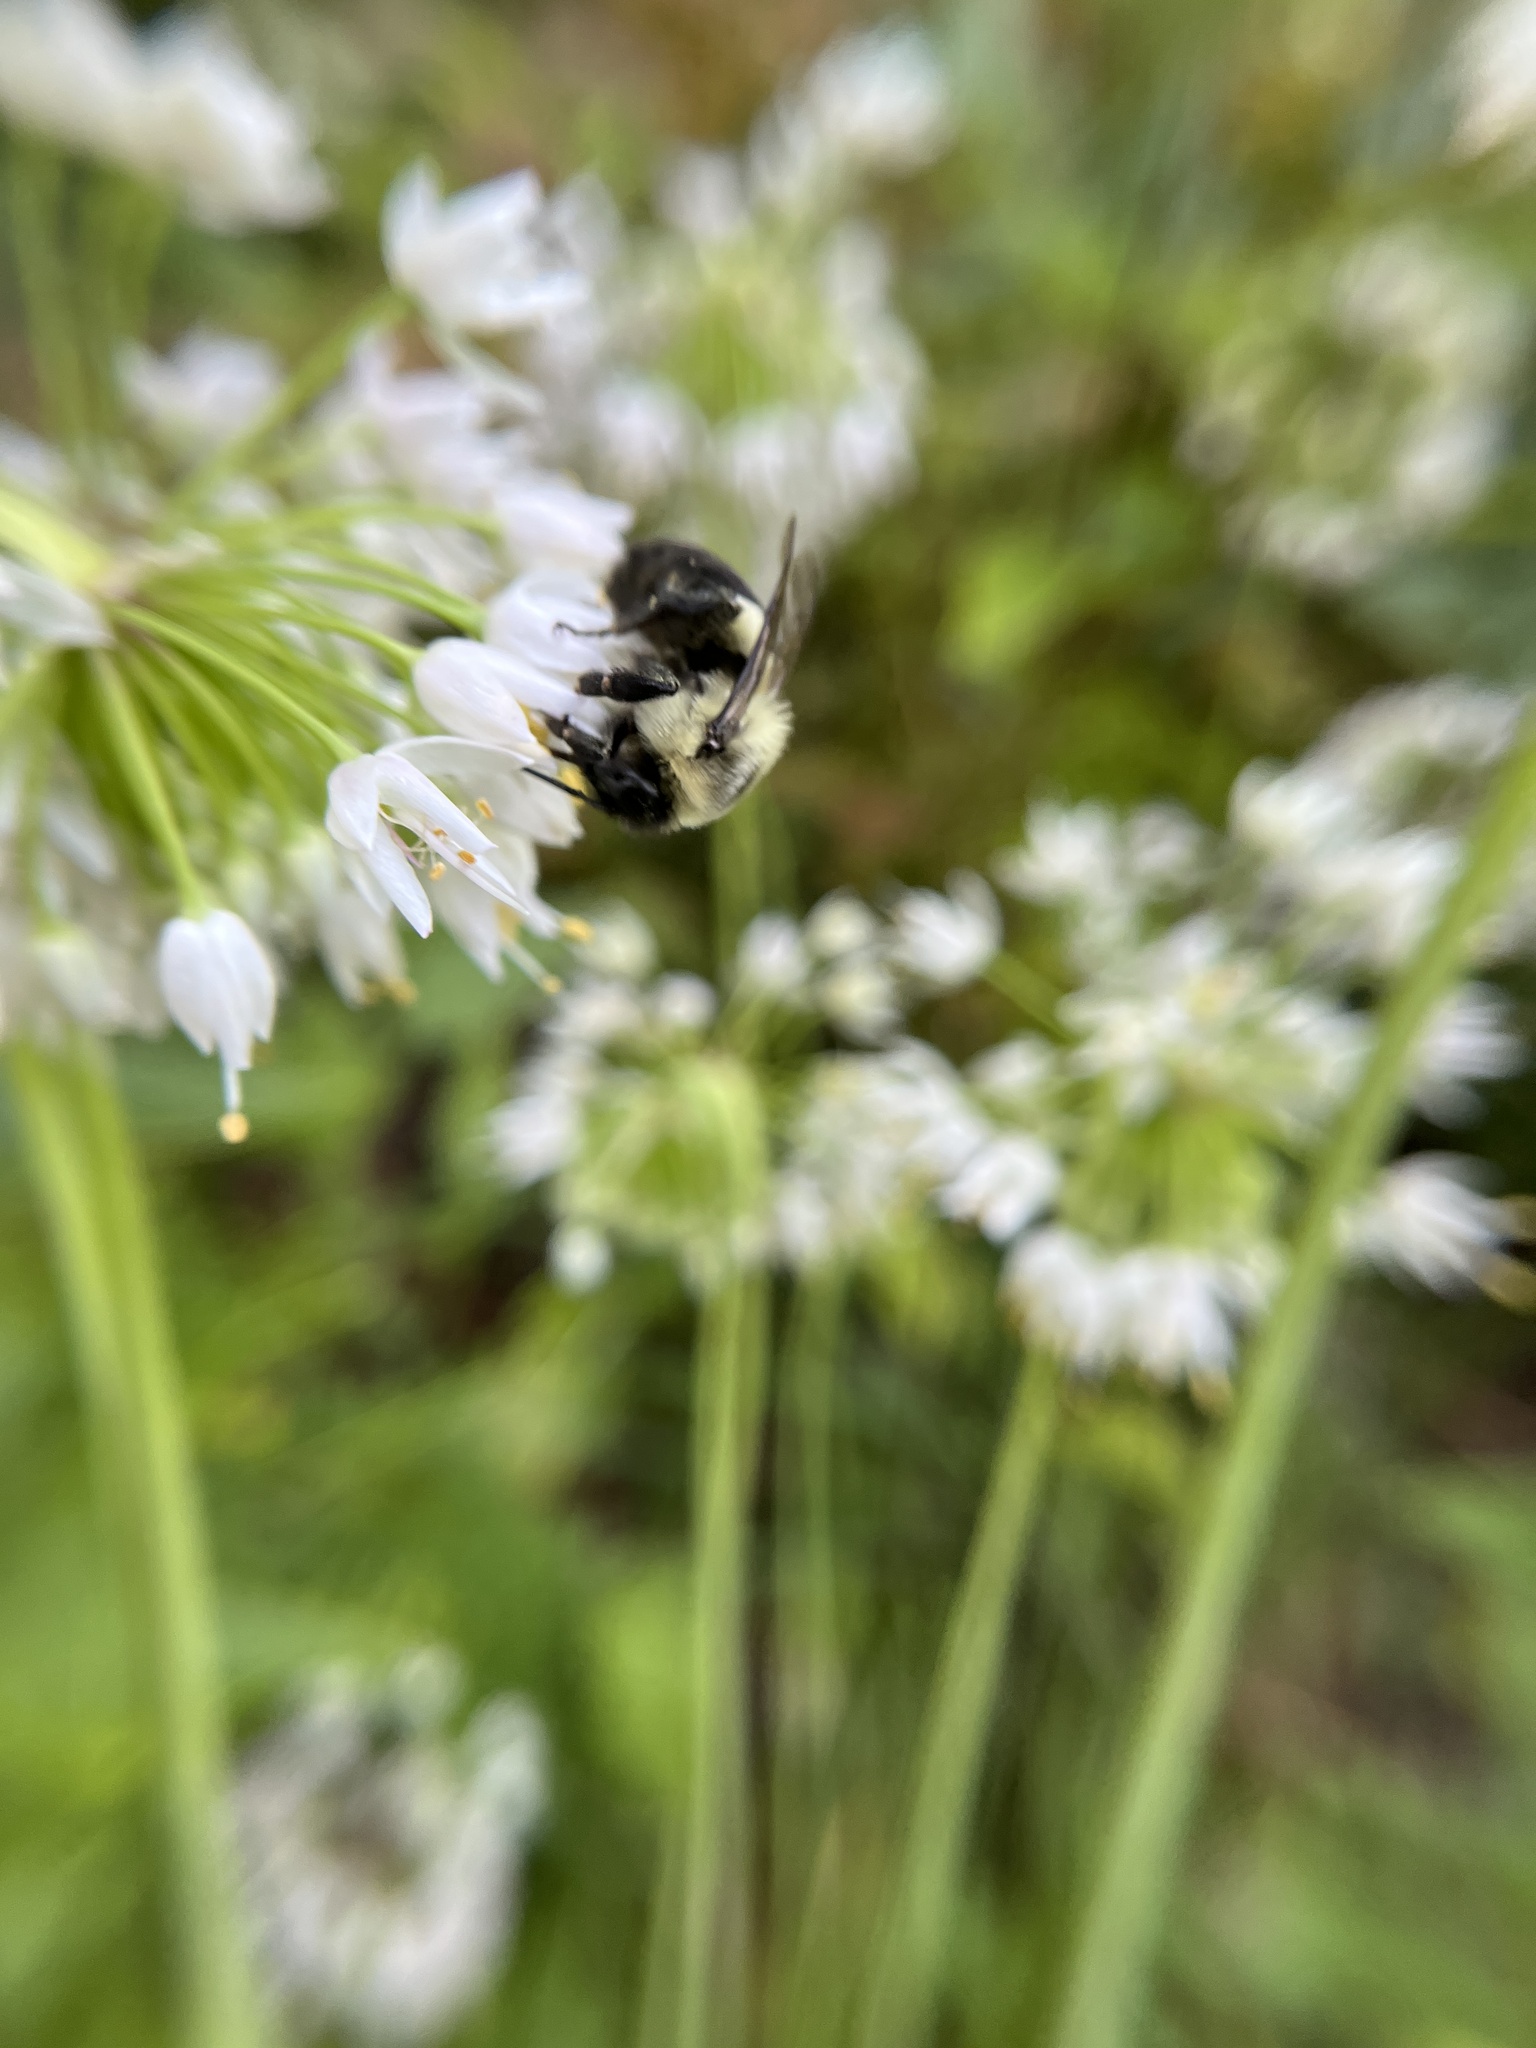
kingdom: Animalia
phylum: Arthropoda
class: Insecta
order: Hymenoptera
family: Apidae
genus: Bombus
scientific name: Bombus impatiens
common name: Common eastern bumble bee
